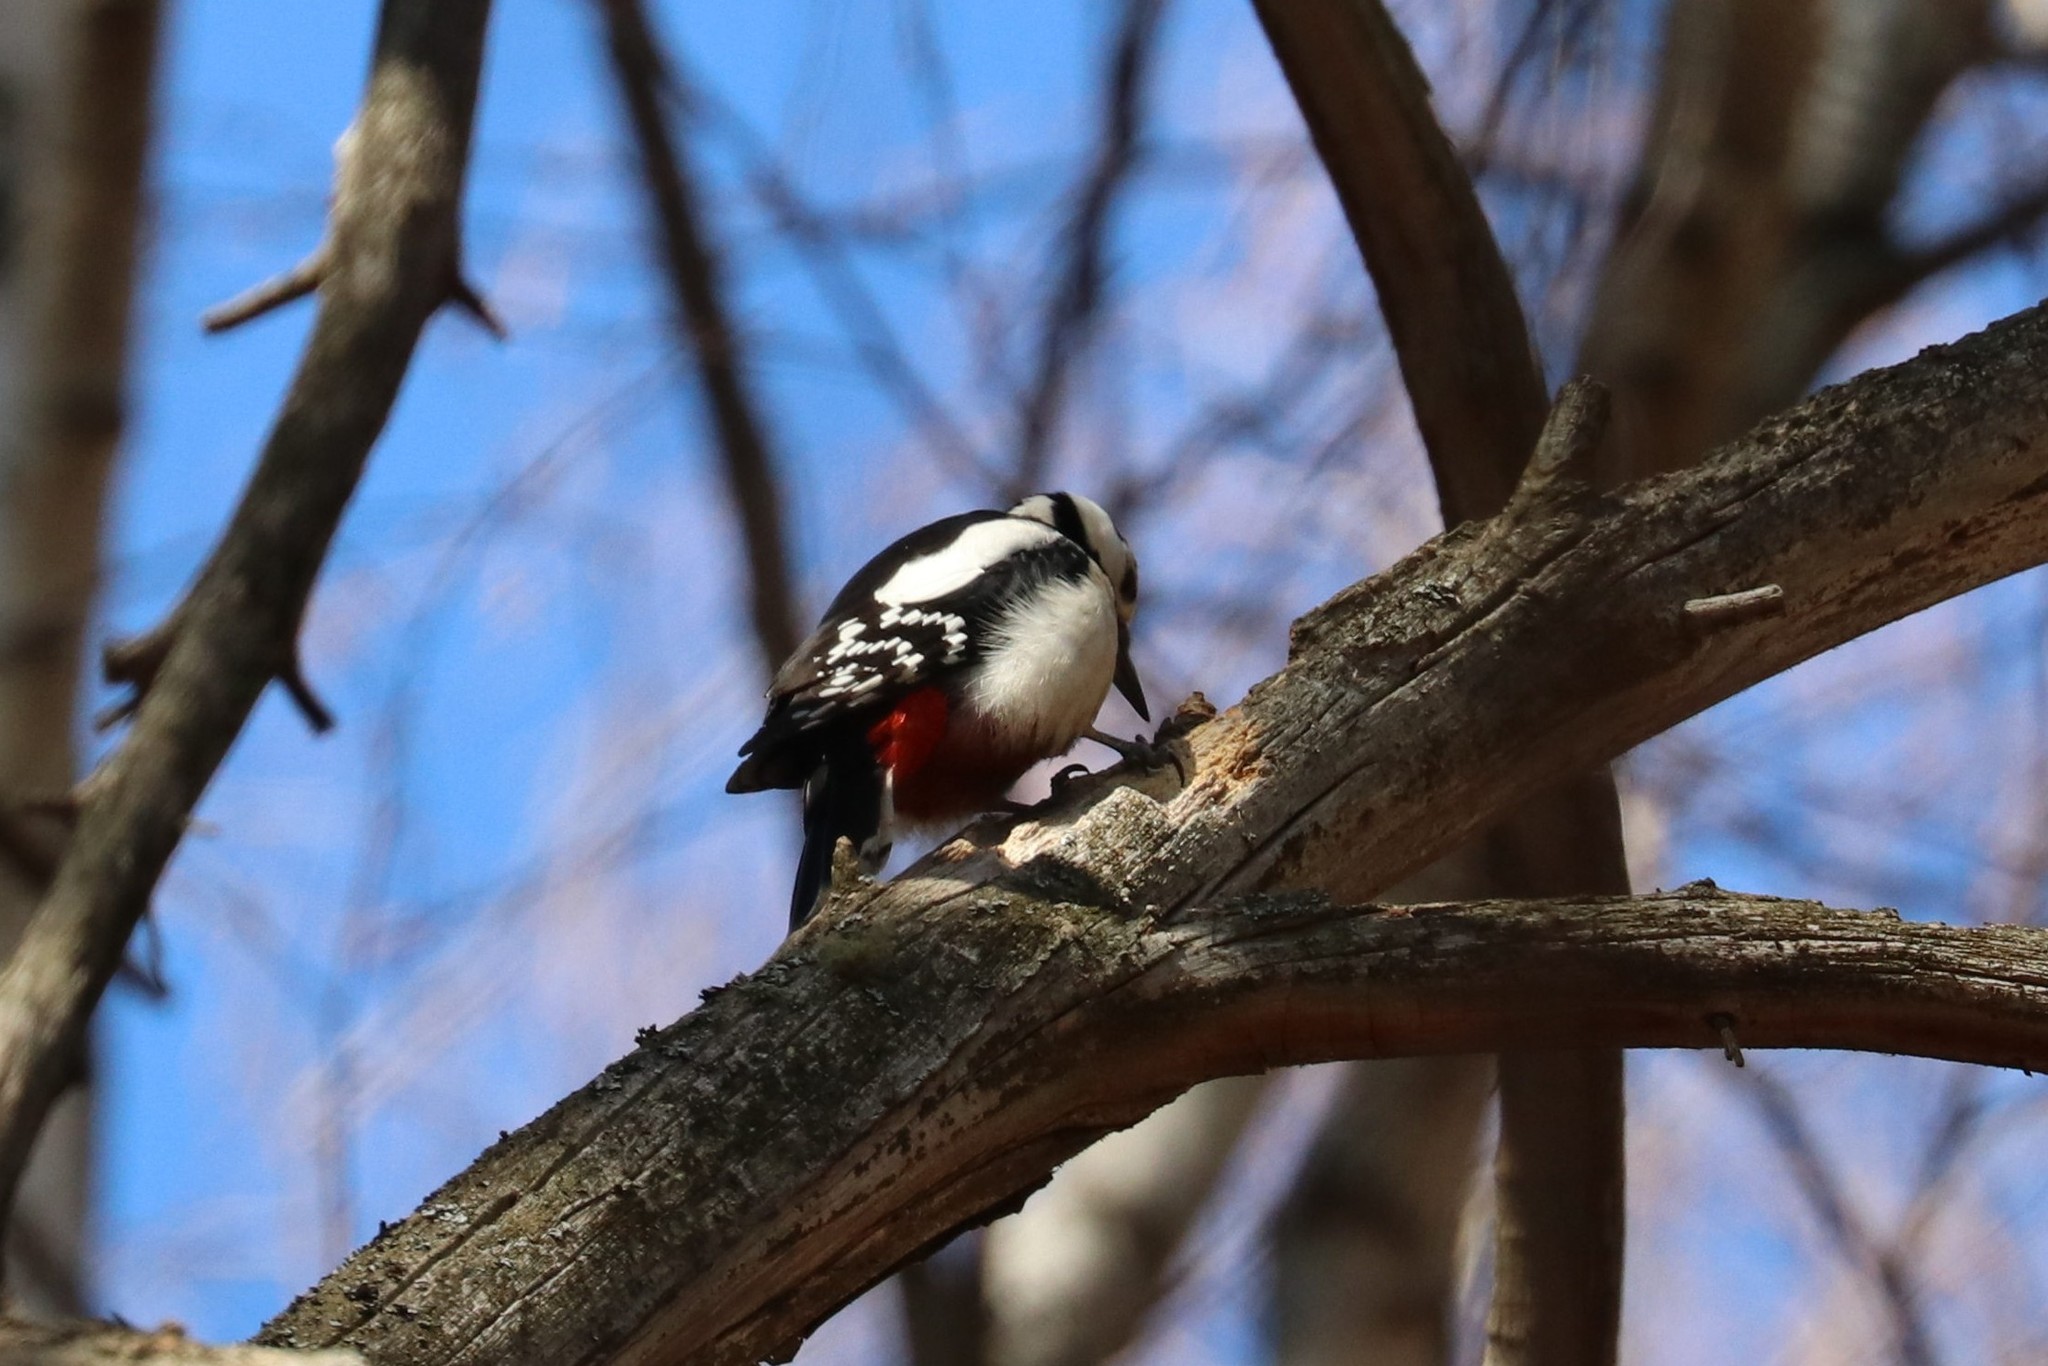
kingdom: Animalia
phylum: Chordata
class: Aves
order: Piciformes
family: Picidae
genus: Dendrocopos
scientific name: Dendrocopos major
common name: Great spotted woodpecker
